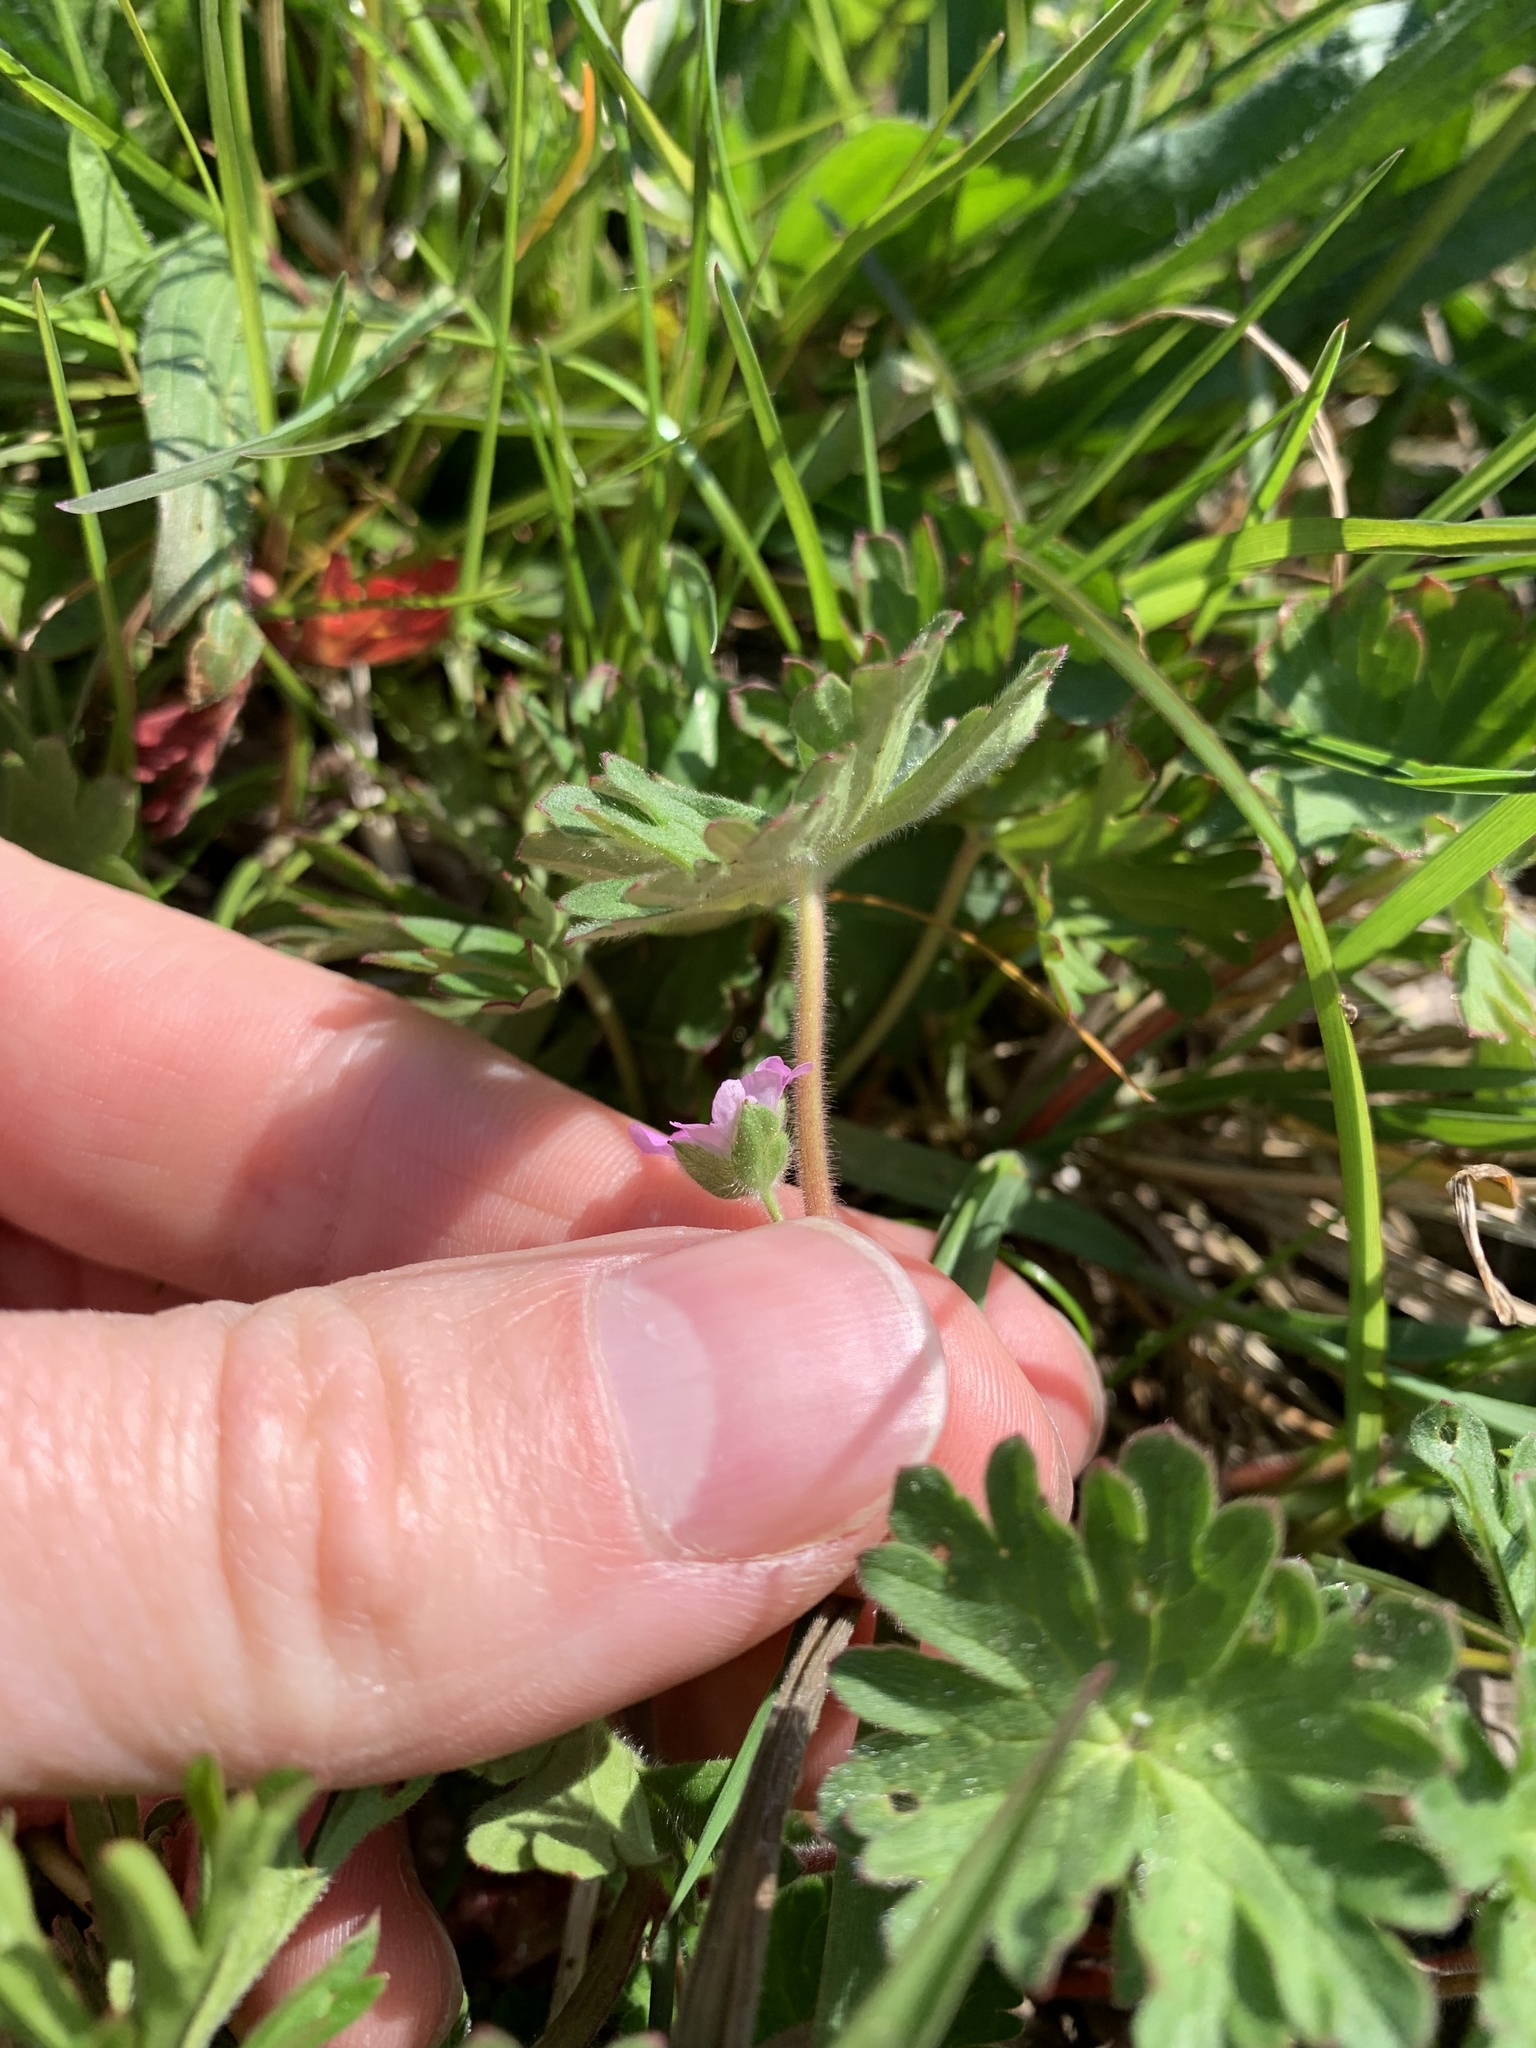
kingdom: Plantae
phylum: Tracheophyta
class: Magnoliopsida
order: Geraniales
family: Geraniaceae
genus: Geranium
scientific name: Geranium molle
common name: Dove's-foot crane's-bill
